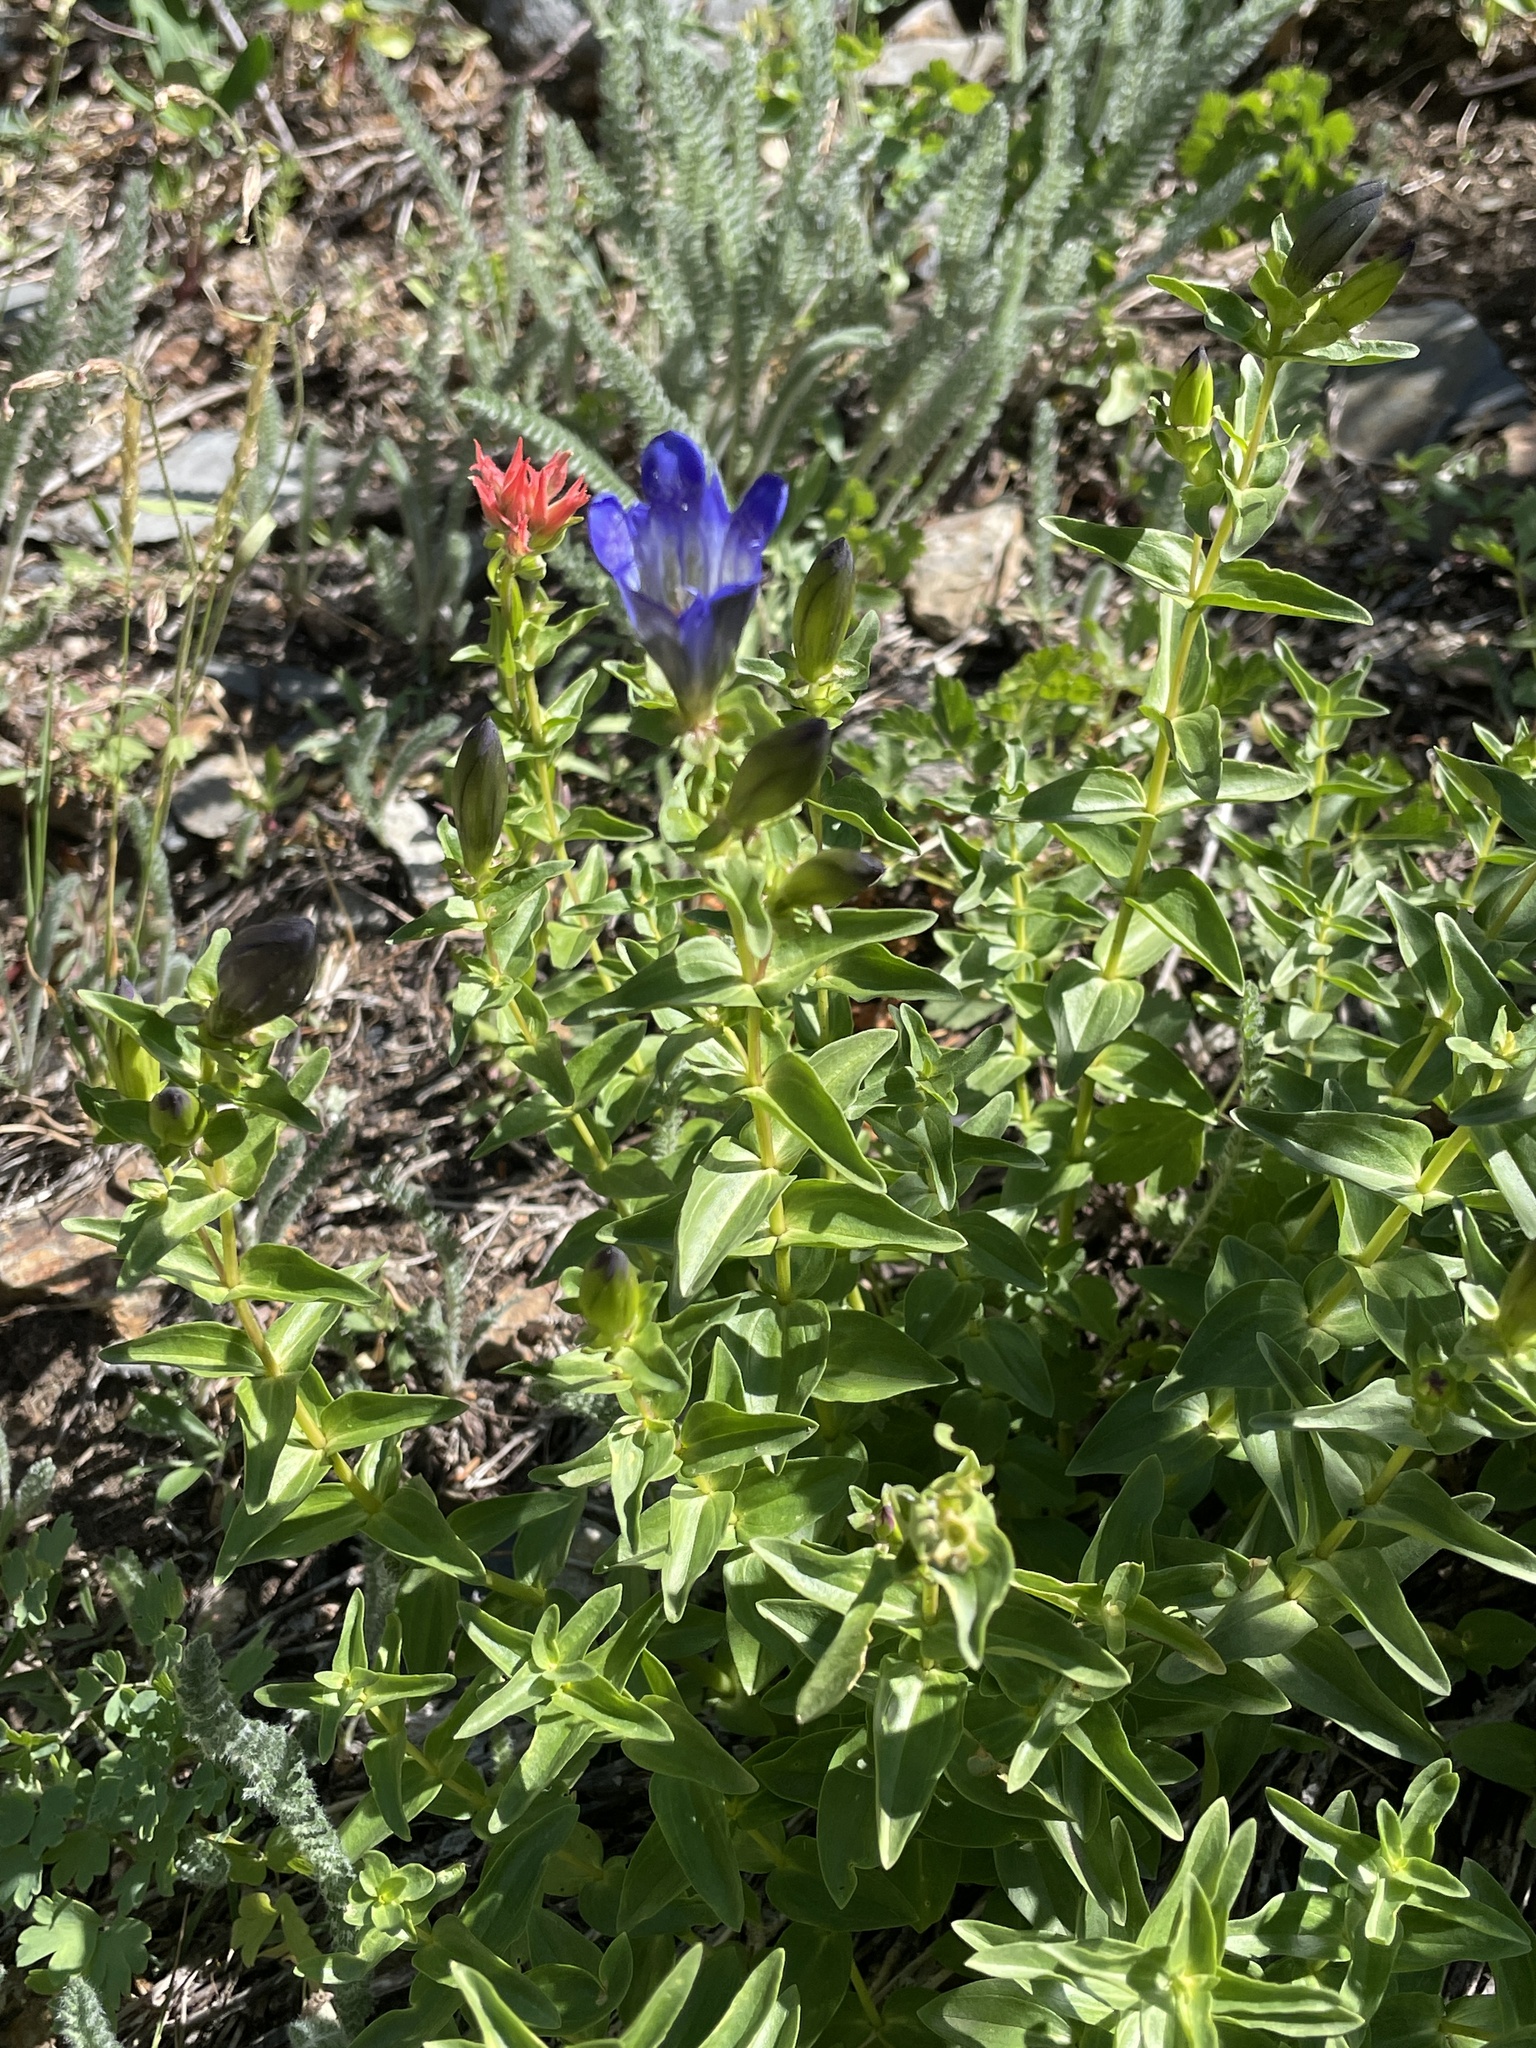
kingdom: Plantae
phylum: Tracheophyta
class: Magnoliopsida
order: Gentianales
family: Gentianaceae
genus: Gentiana
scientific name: Gentiana calycosa
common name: Rainier pleated gentian
